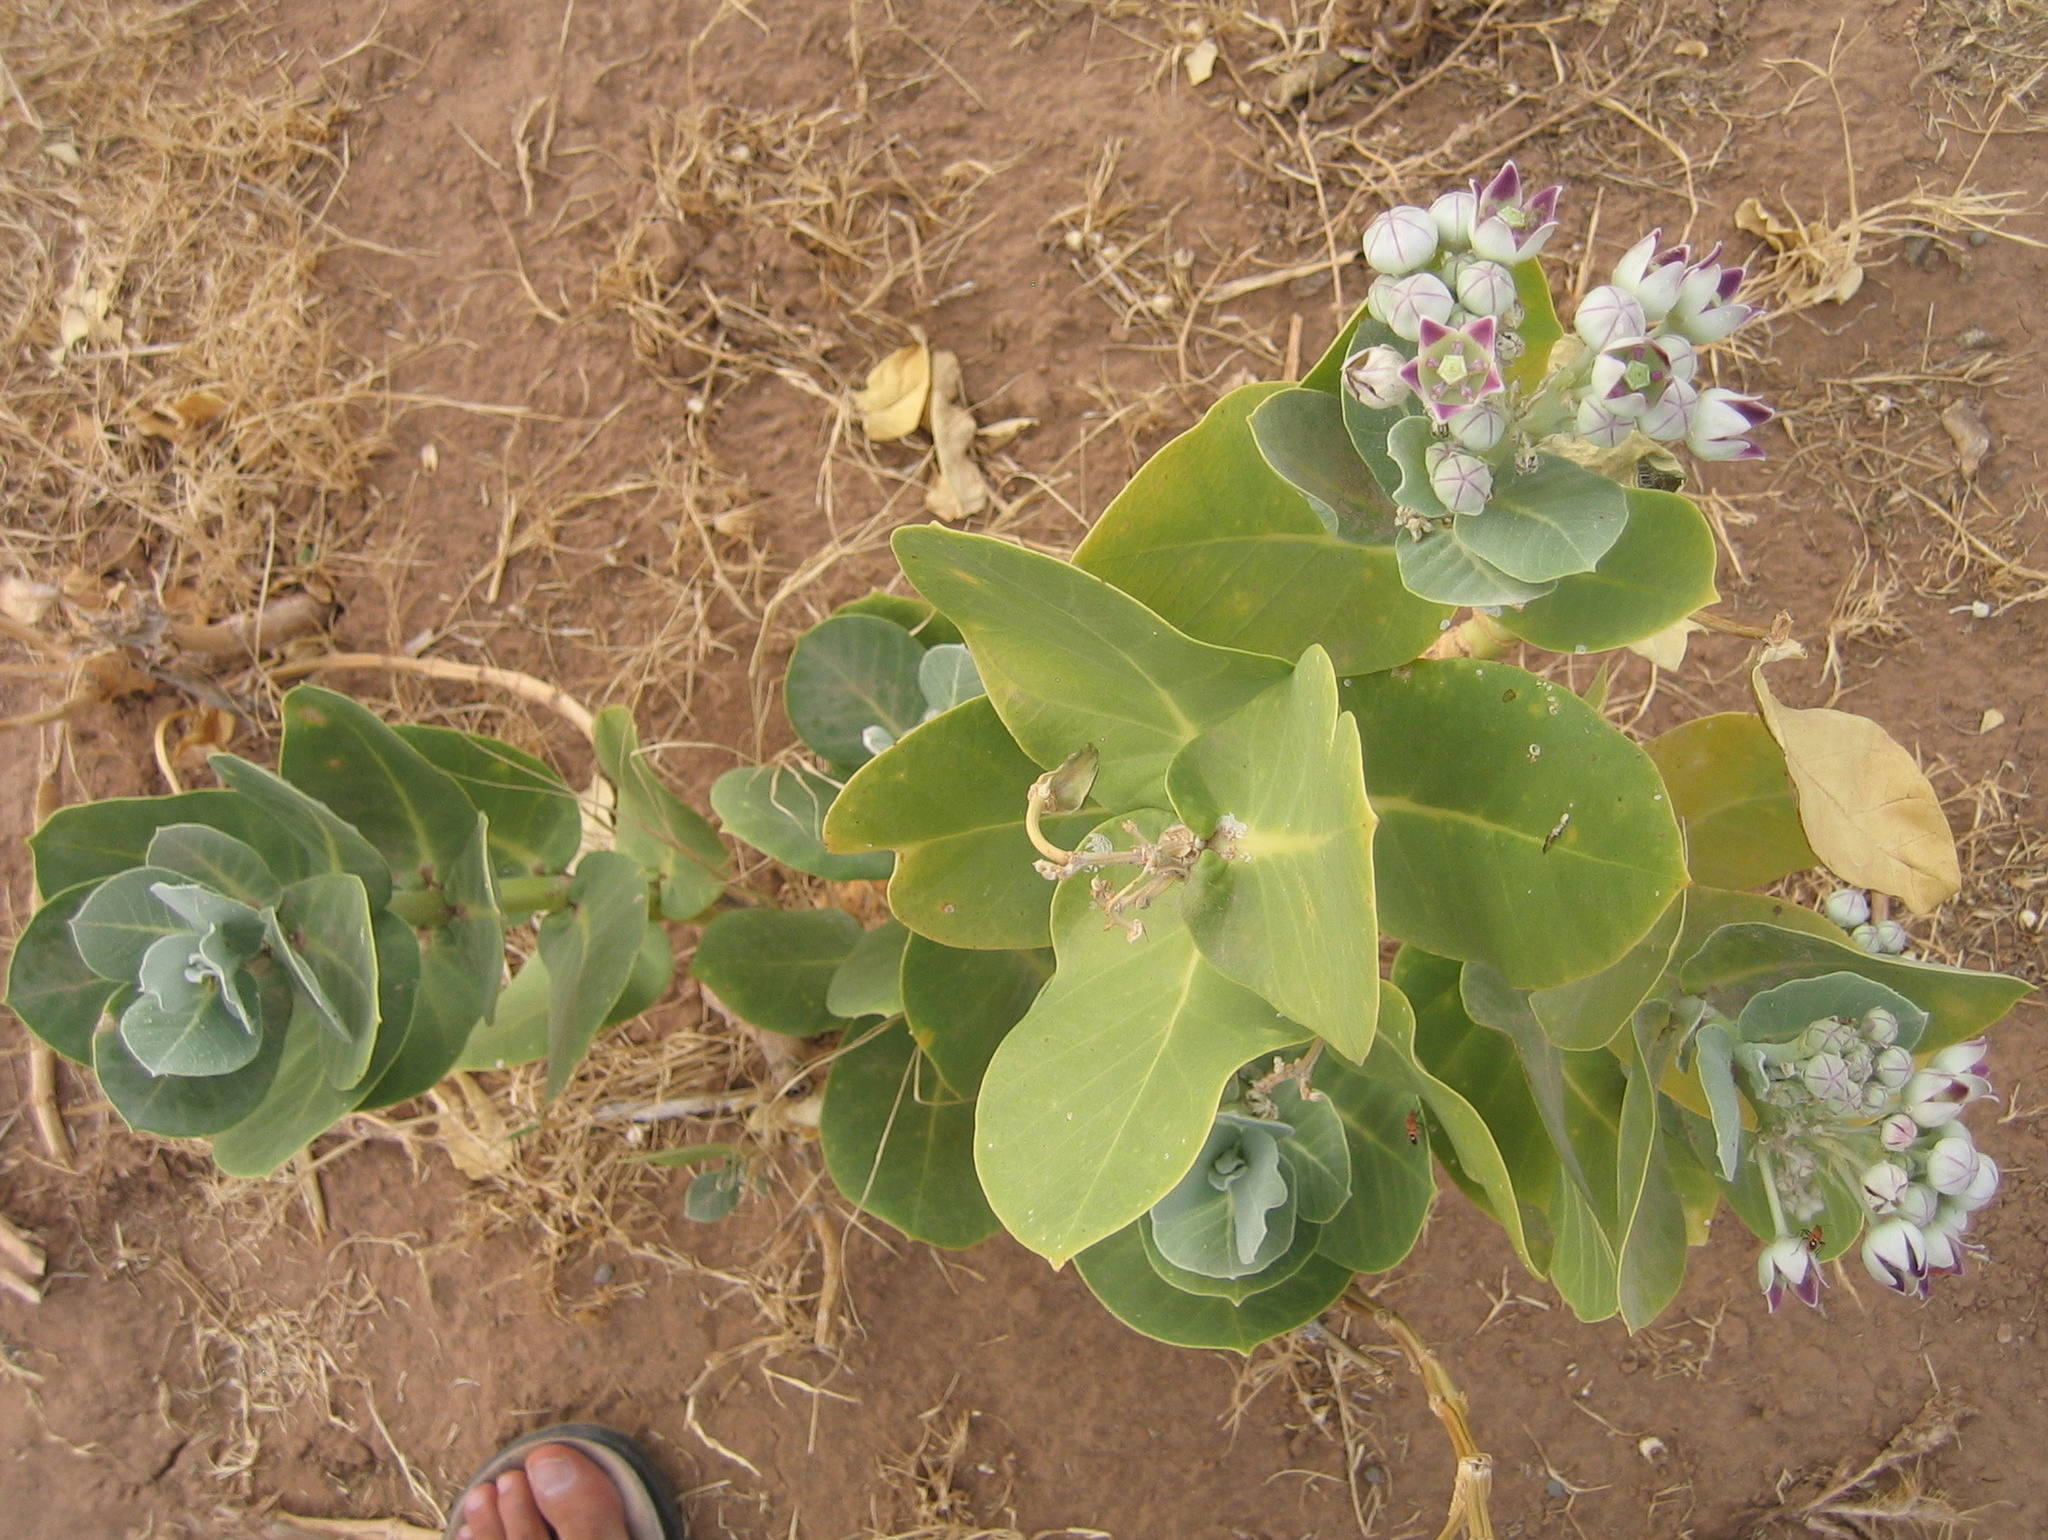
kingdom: Plantae
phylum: Tracheophyta
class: Magnoliopsida
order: Gentianales
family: Apocynaceae
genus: Calotropis
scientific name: Calotropis procera
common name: Roostertree
